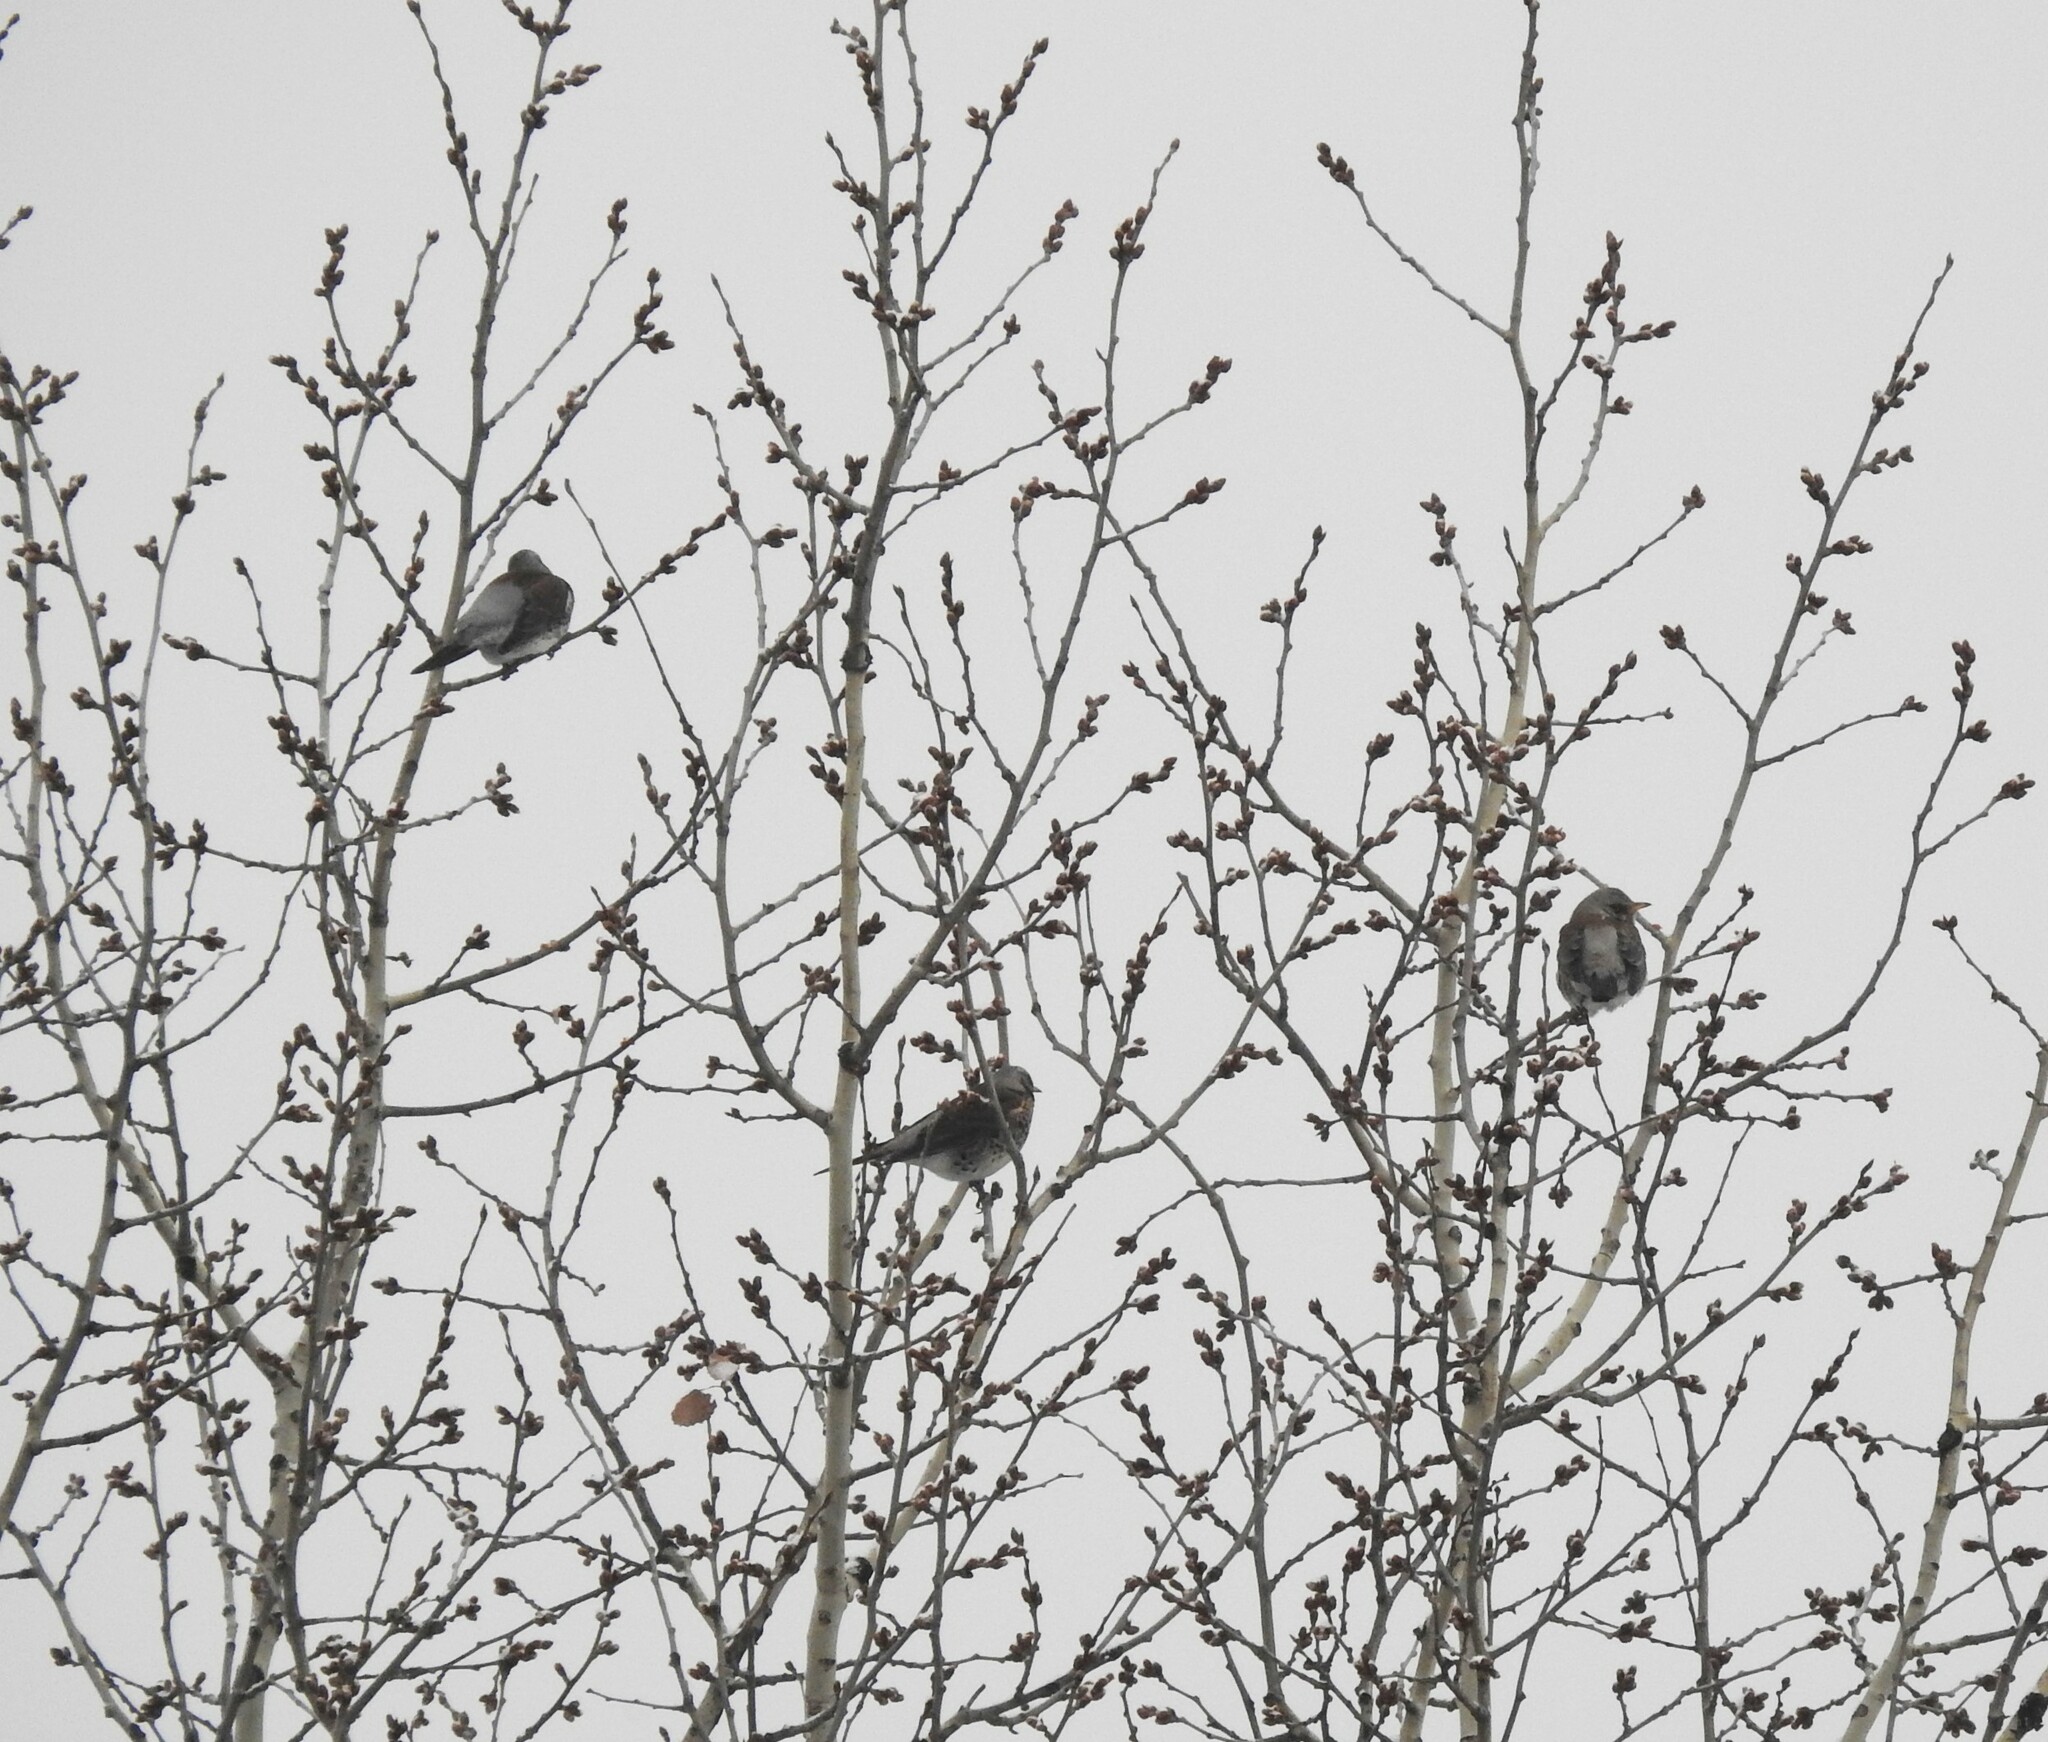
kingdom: Animalia
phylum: Chordata
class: Aves
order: Passeriformes
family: Turdidae
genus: Turdus
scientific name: Turdus pilaris
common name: Fieldfare
